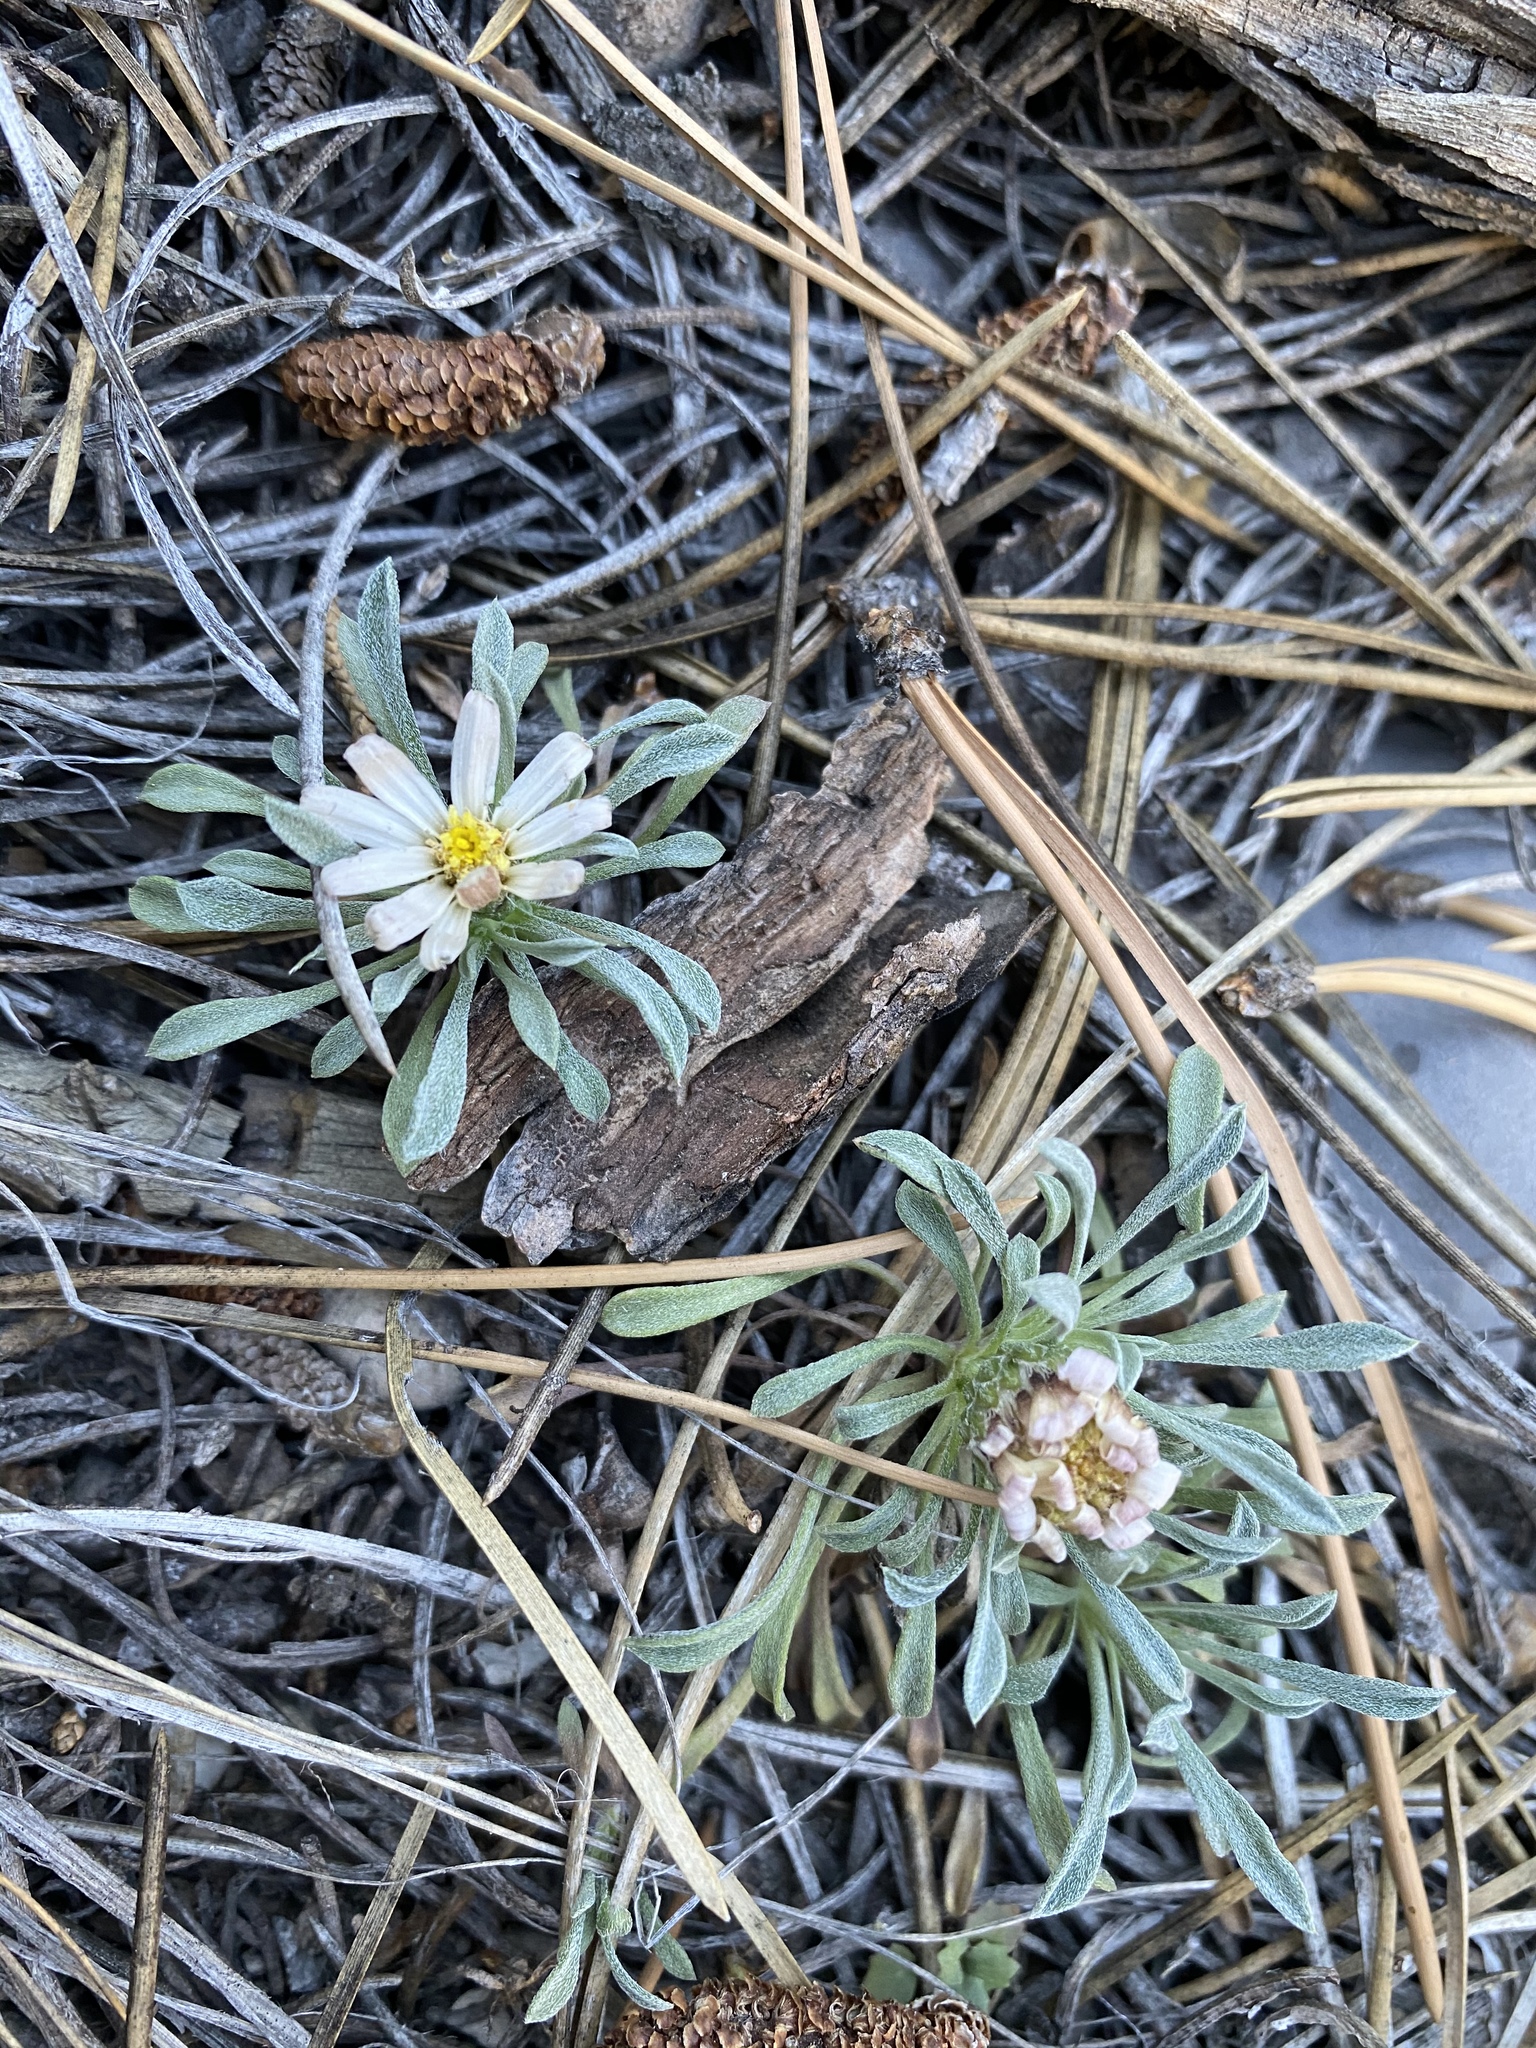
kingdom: Plantae
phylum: Tracheophyta
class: Magnoliopsida
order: Asterales
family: Asteraceae
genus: Townsendia
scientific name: Townsendia jonesii
